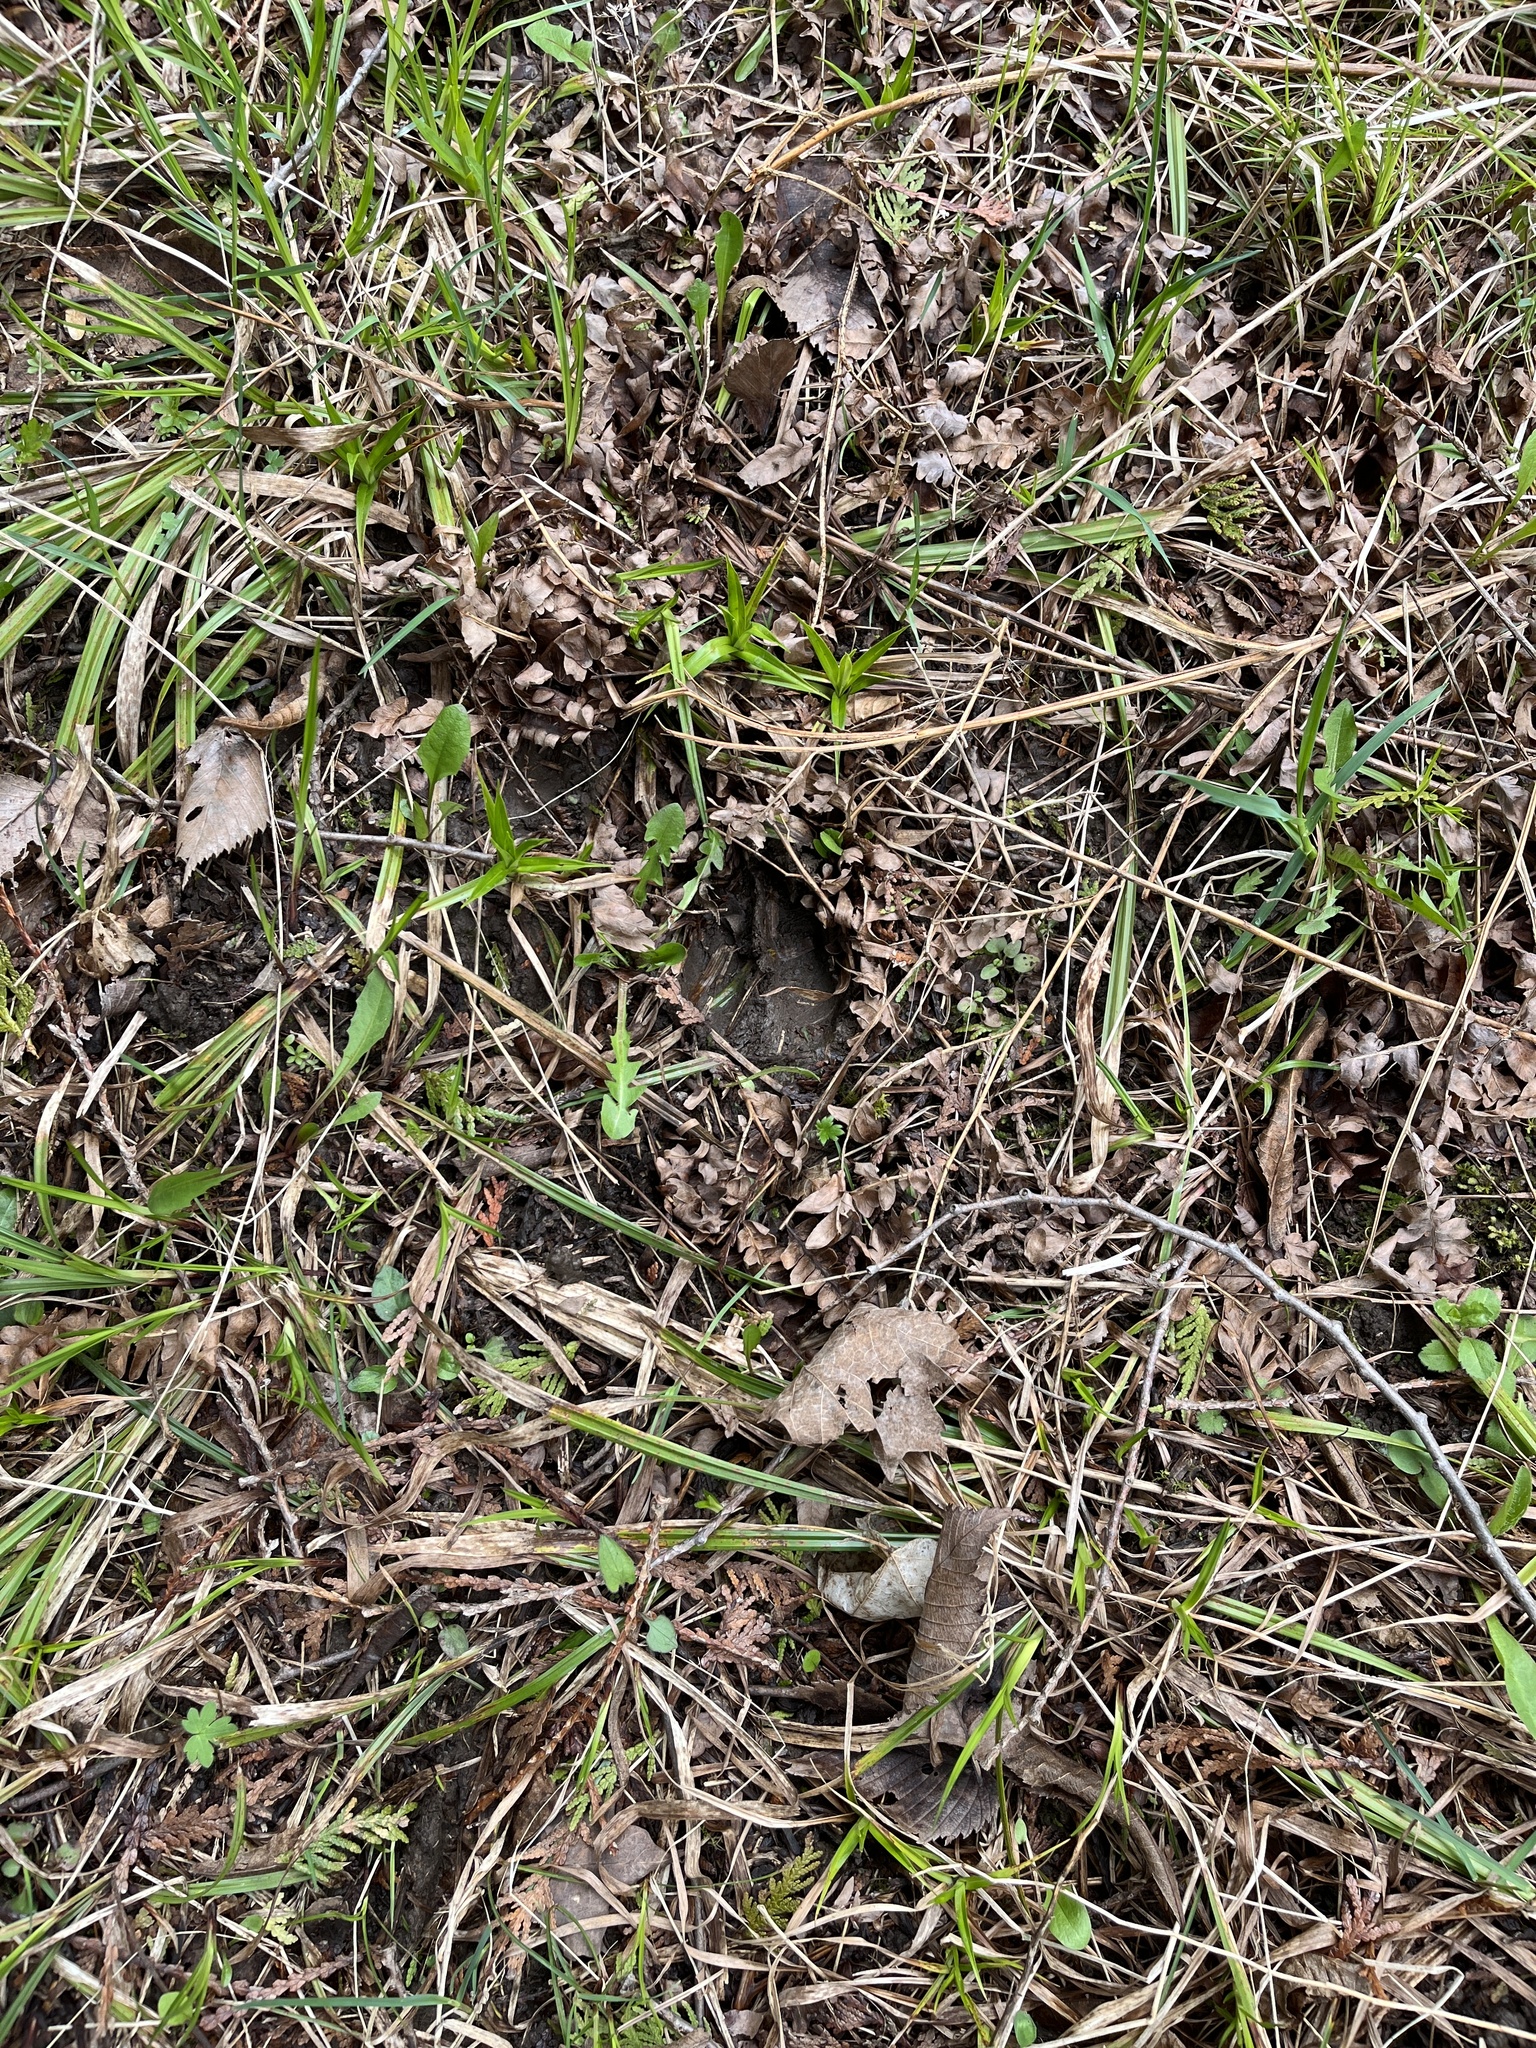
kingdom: Animalia
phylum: Chordata
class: Mammalia
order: Artiodactyla
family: Cervidae
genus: Odocoileus
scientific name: Odocoileus virginianus
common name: White-tailed deer
